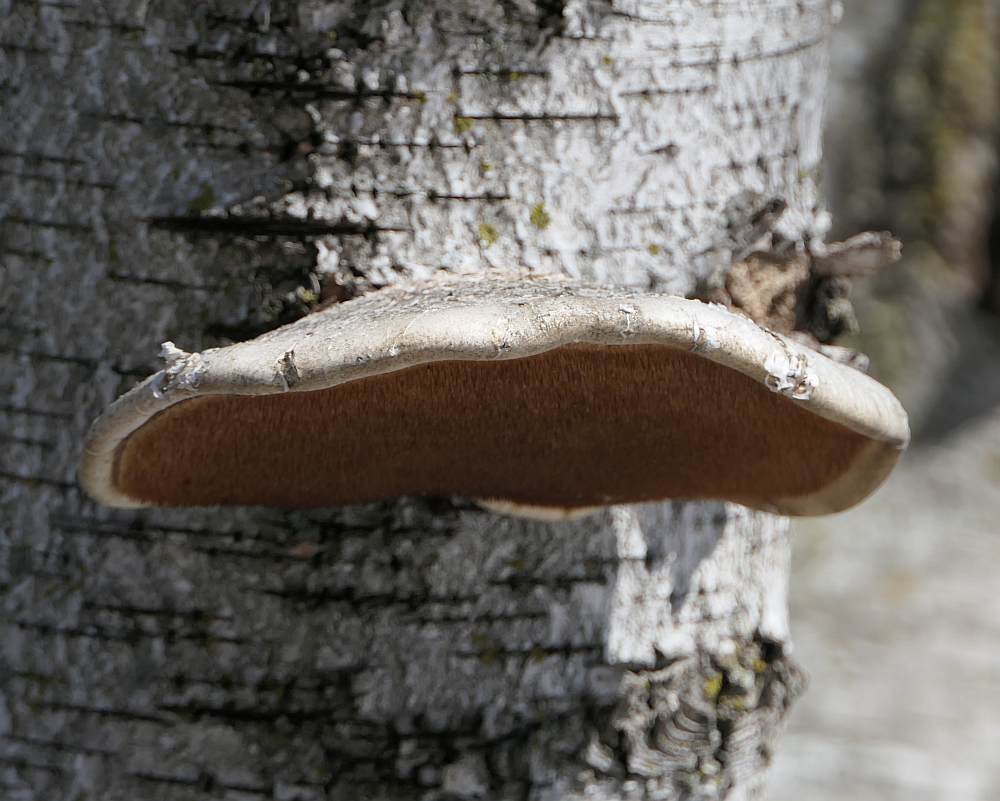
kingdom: Fungi
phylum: Basidiomycota
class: Agaricomycetes
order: Polyporales
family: Fomitopsidaceae
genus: Fomitopsis
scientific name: Fomitopsis betulina
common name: Birch polypore
